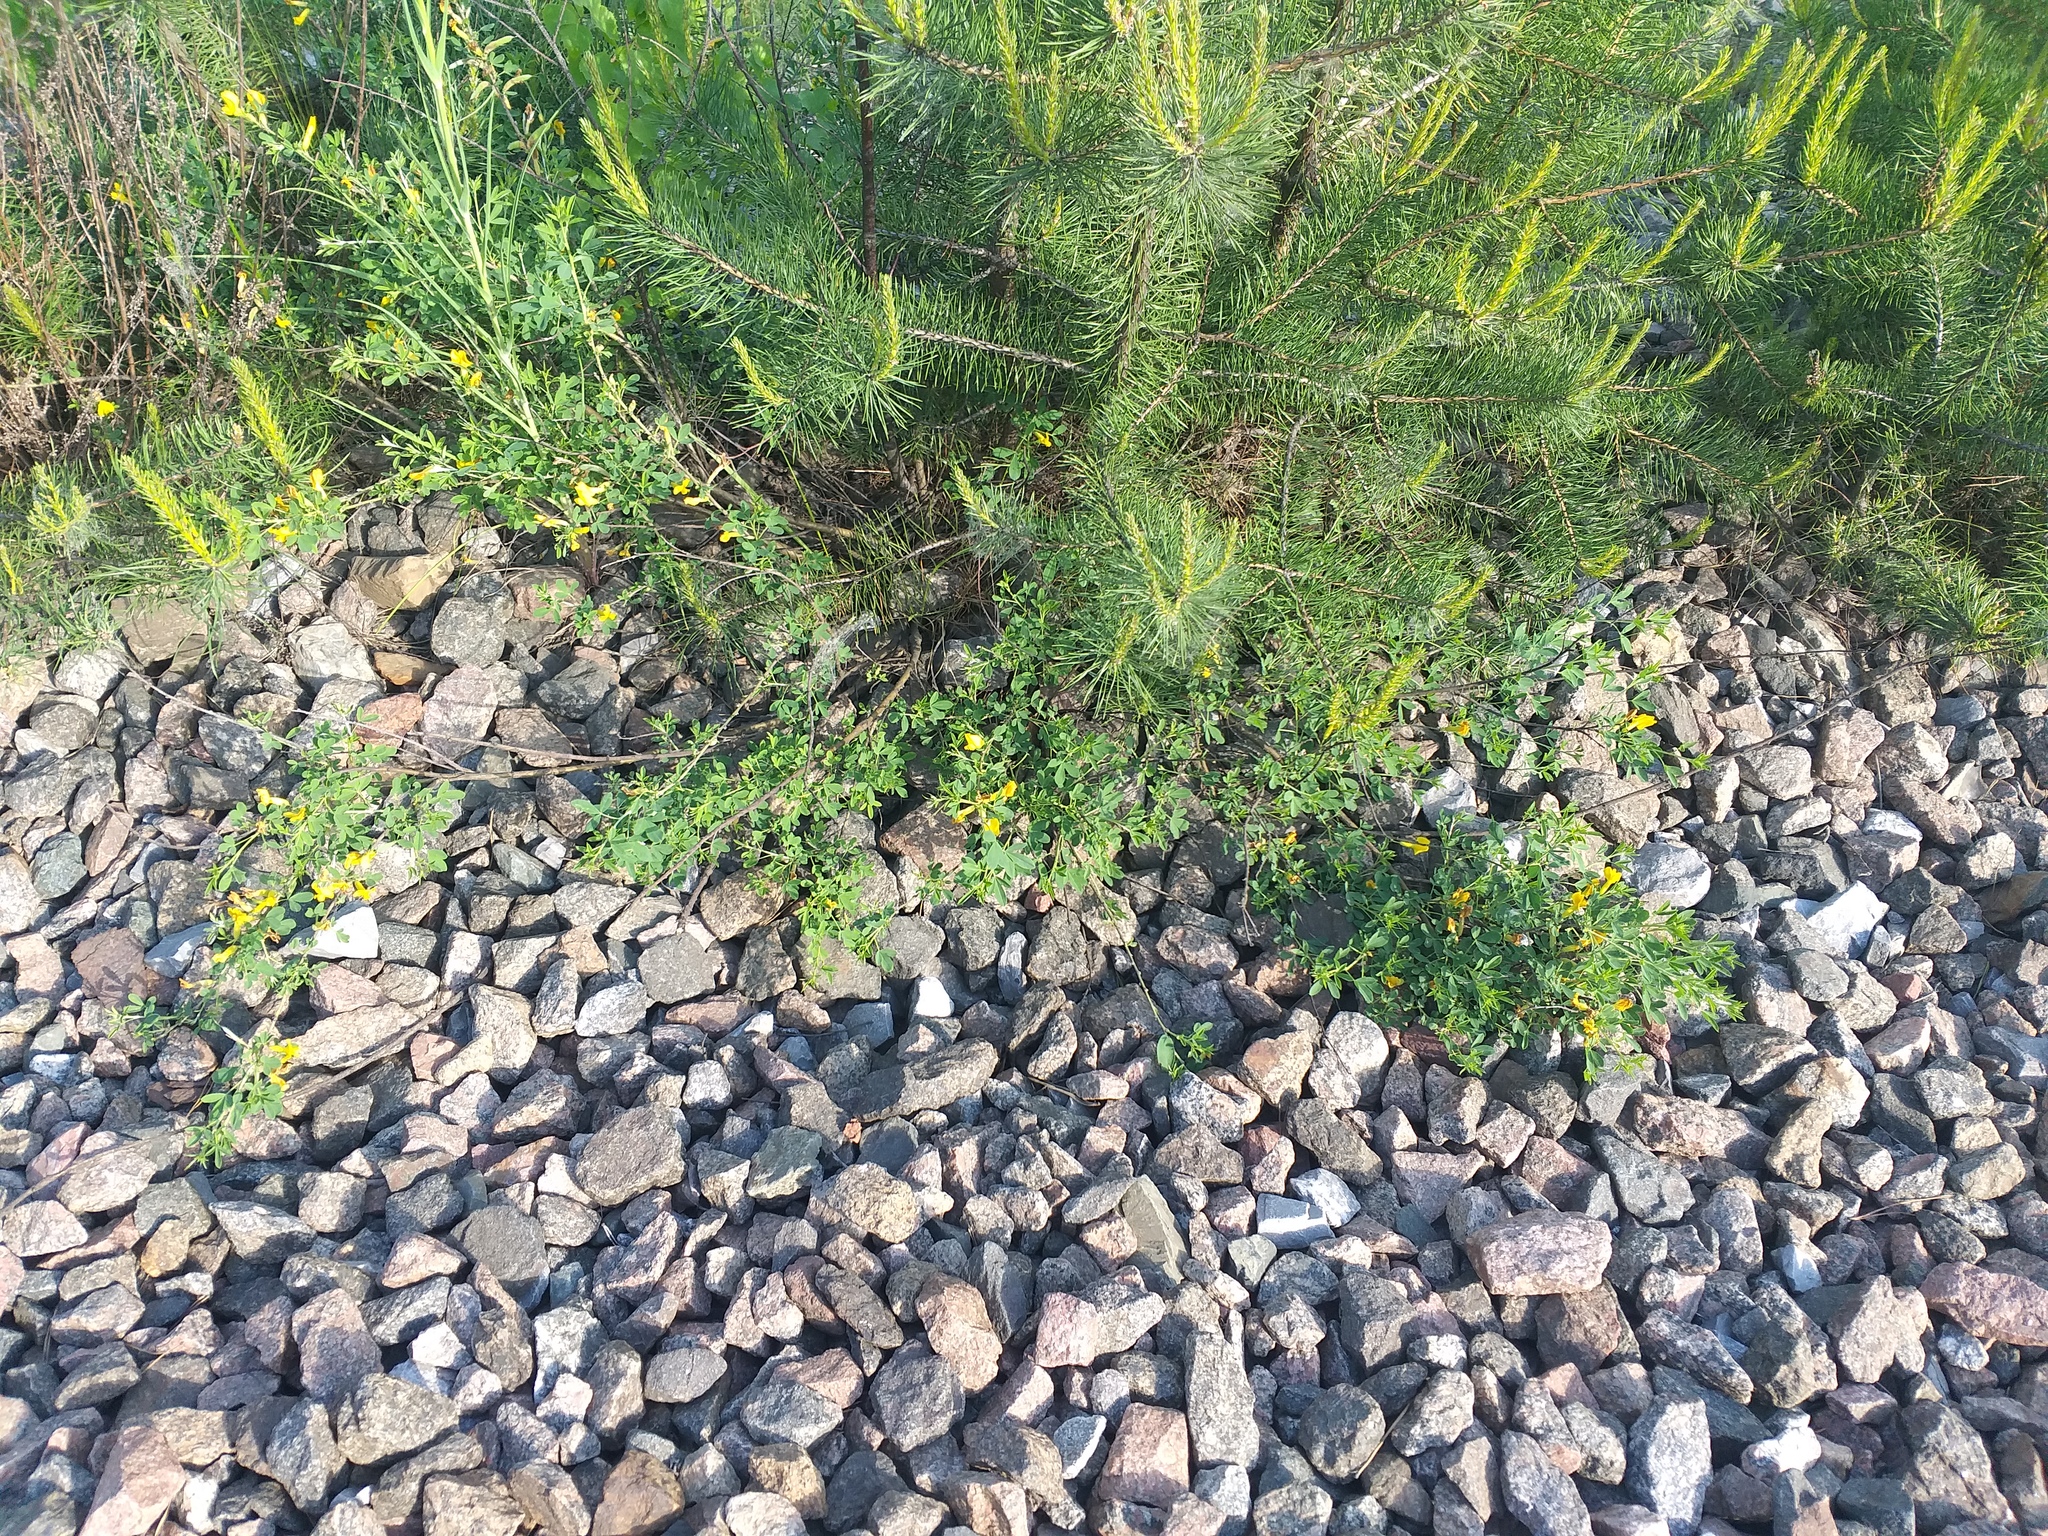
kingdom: Plantae
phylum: Tracheophyta
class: Magnoliopsida
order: Fabales
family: Fabaceae
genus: Chamaecytisus
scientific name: Chamaecytisus ruthenicus
